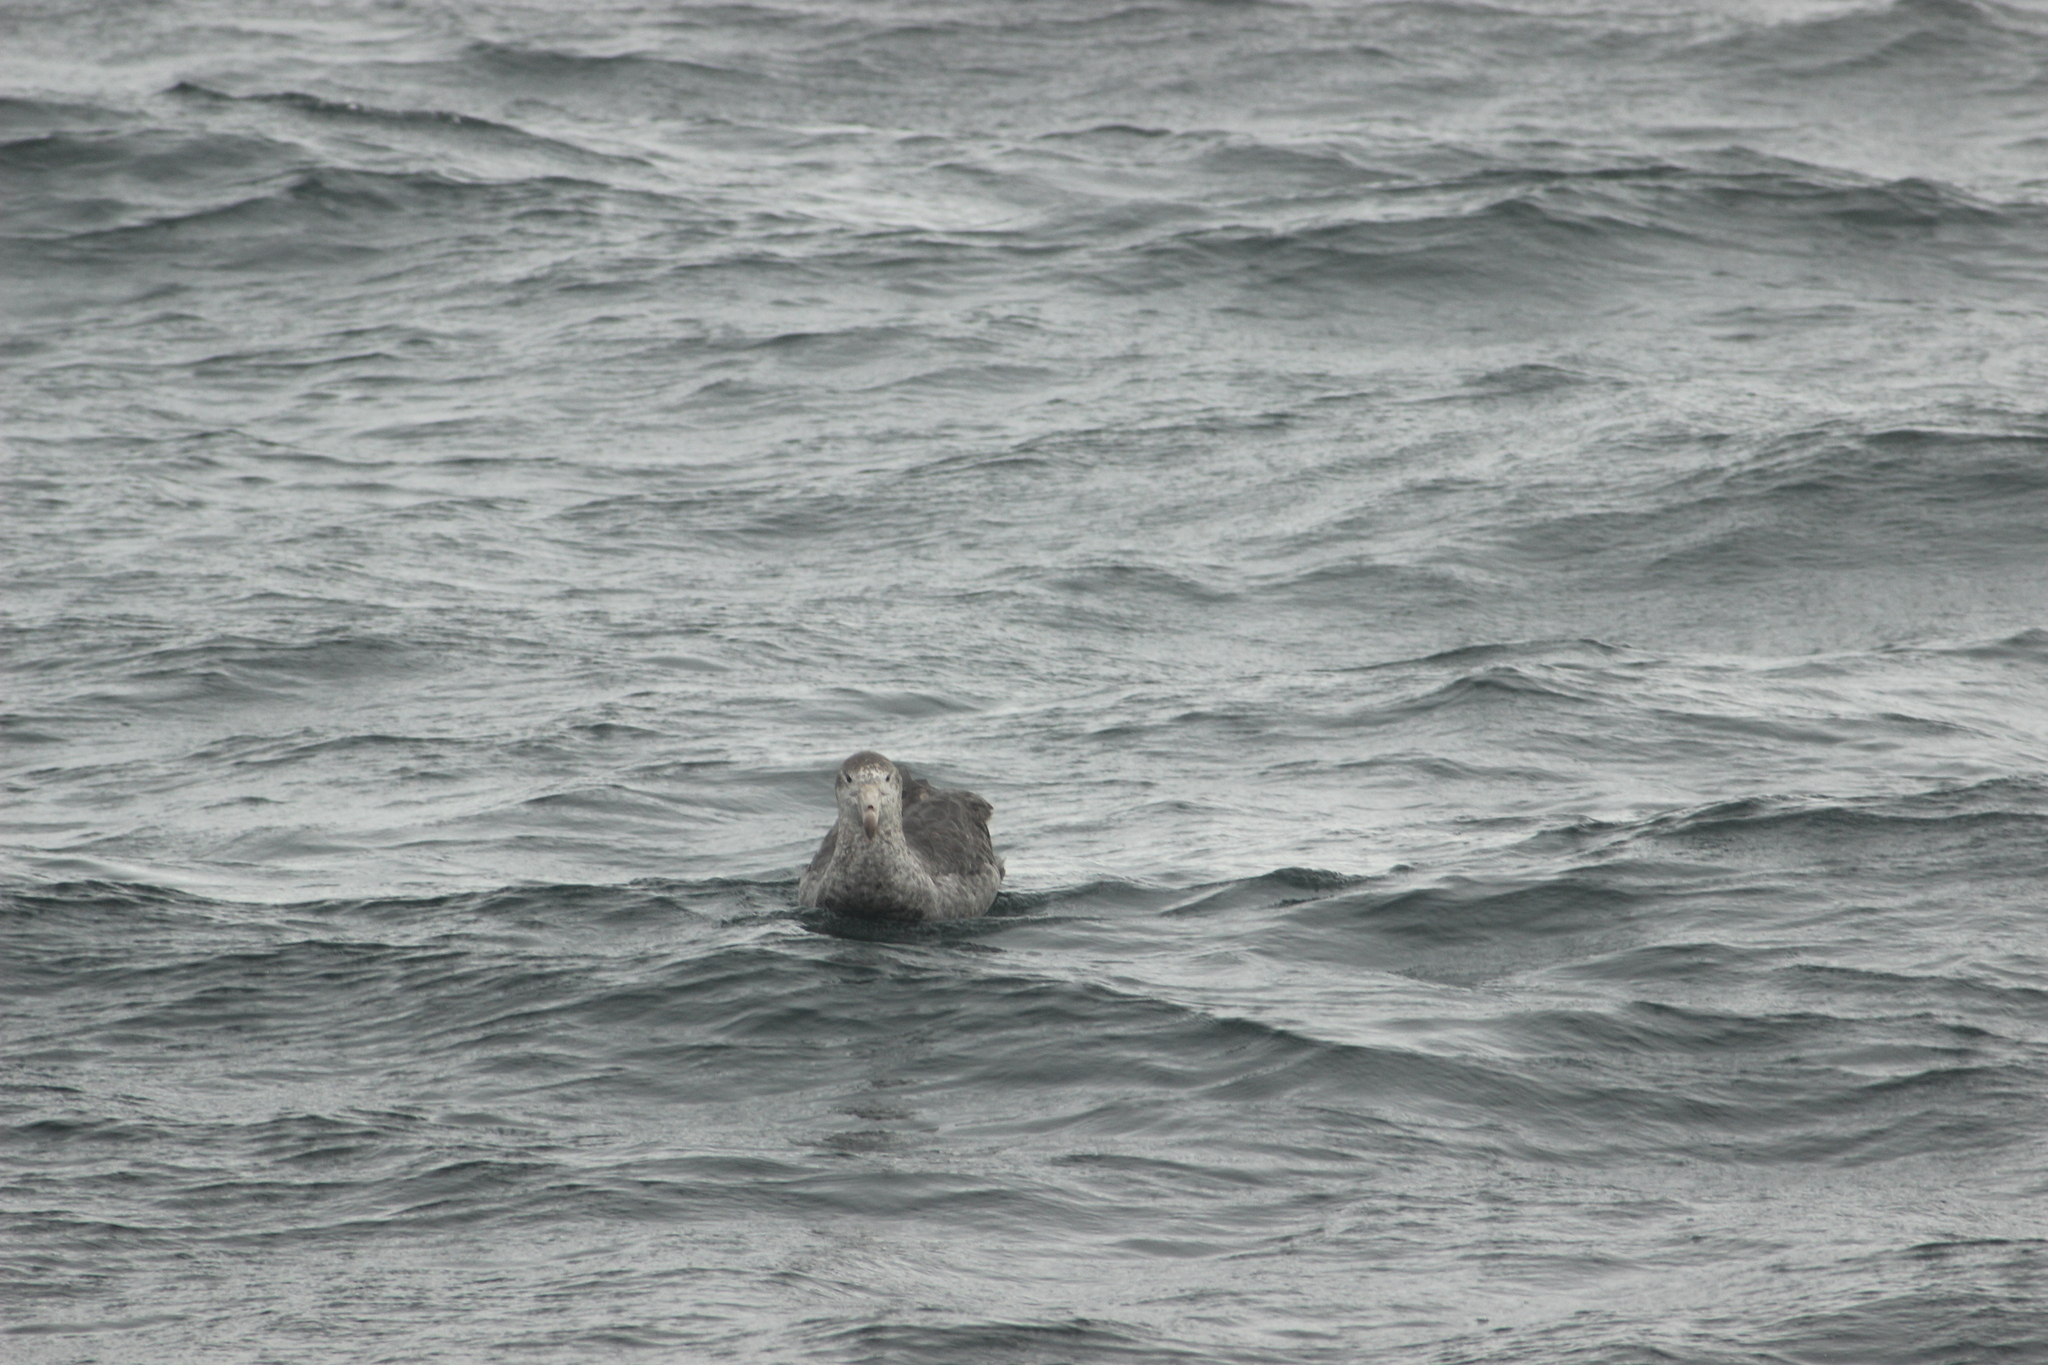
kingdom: Animalia
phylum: Chordata
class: Aves
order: Procellariiformes
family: Procellariidae
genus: Macronectes
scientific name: Macronectes halli
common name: Northern giant petrel
